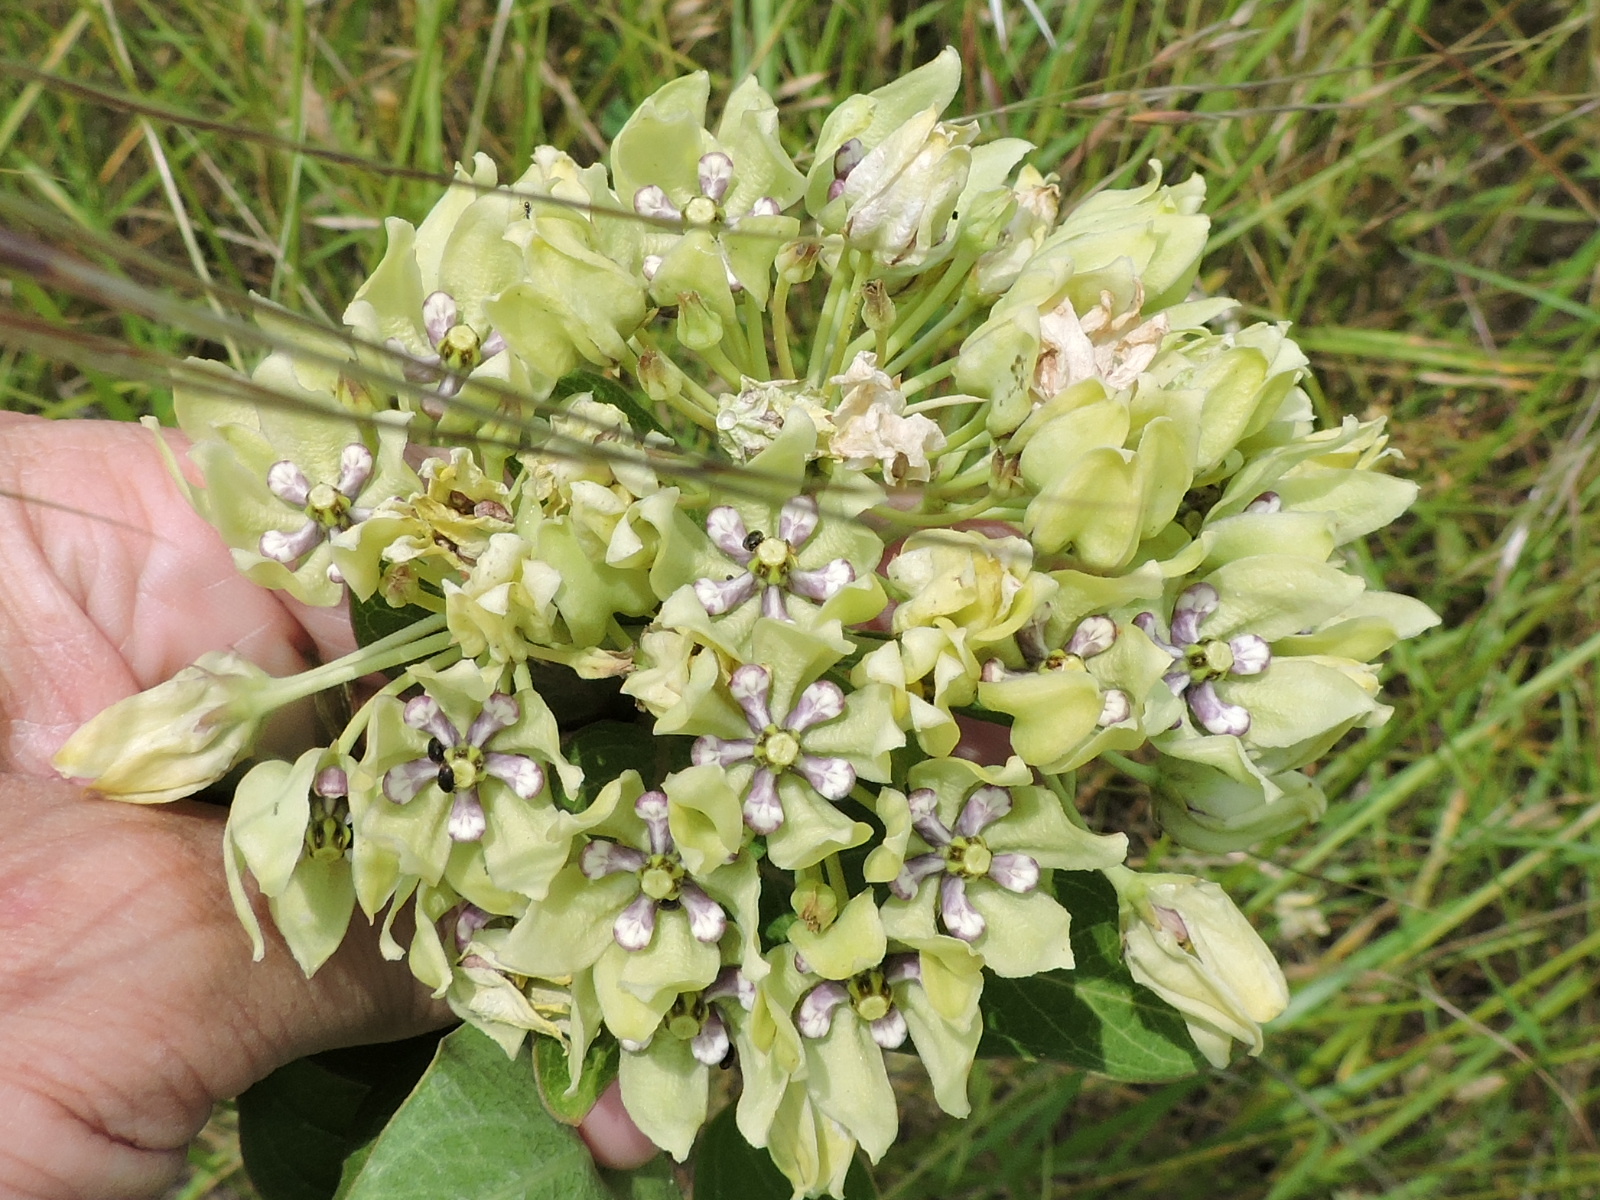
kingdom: Plantae
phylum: Tracheophyta
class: Magnoliopsida
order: Gentianales
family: Apocynaceae
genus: Asclepias
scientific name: Asclepias viridis
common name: Antelope-horns
